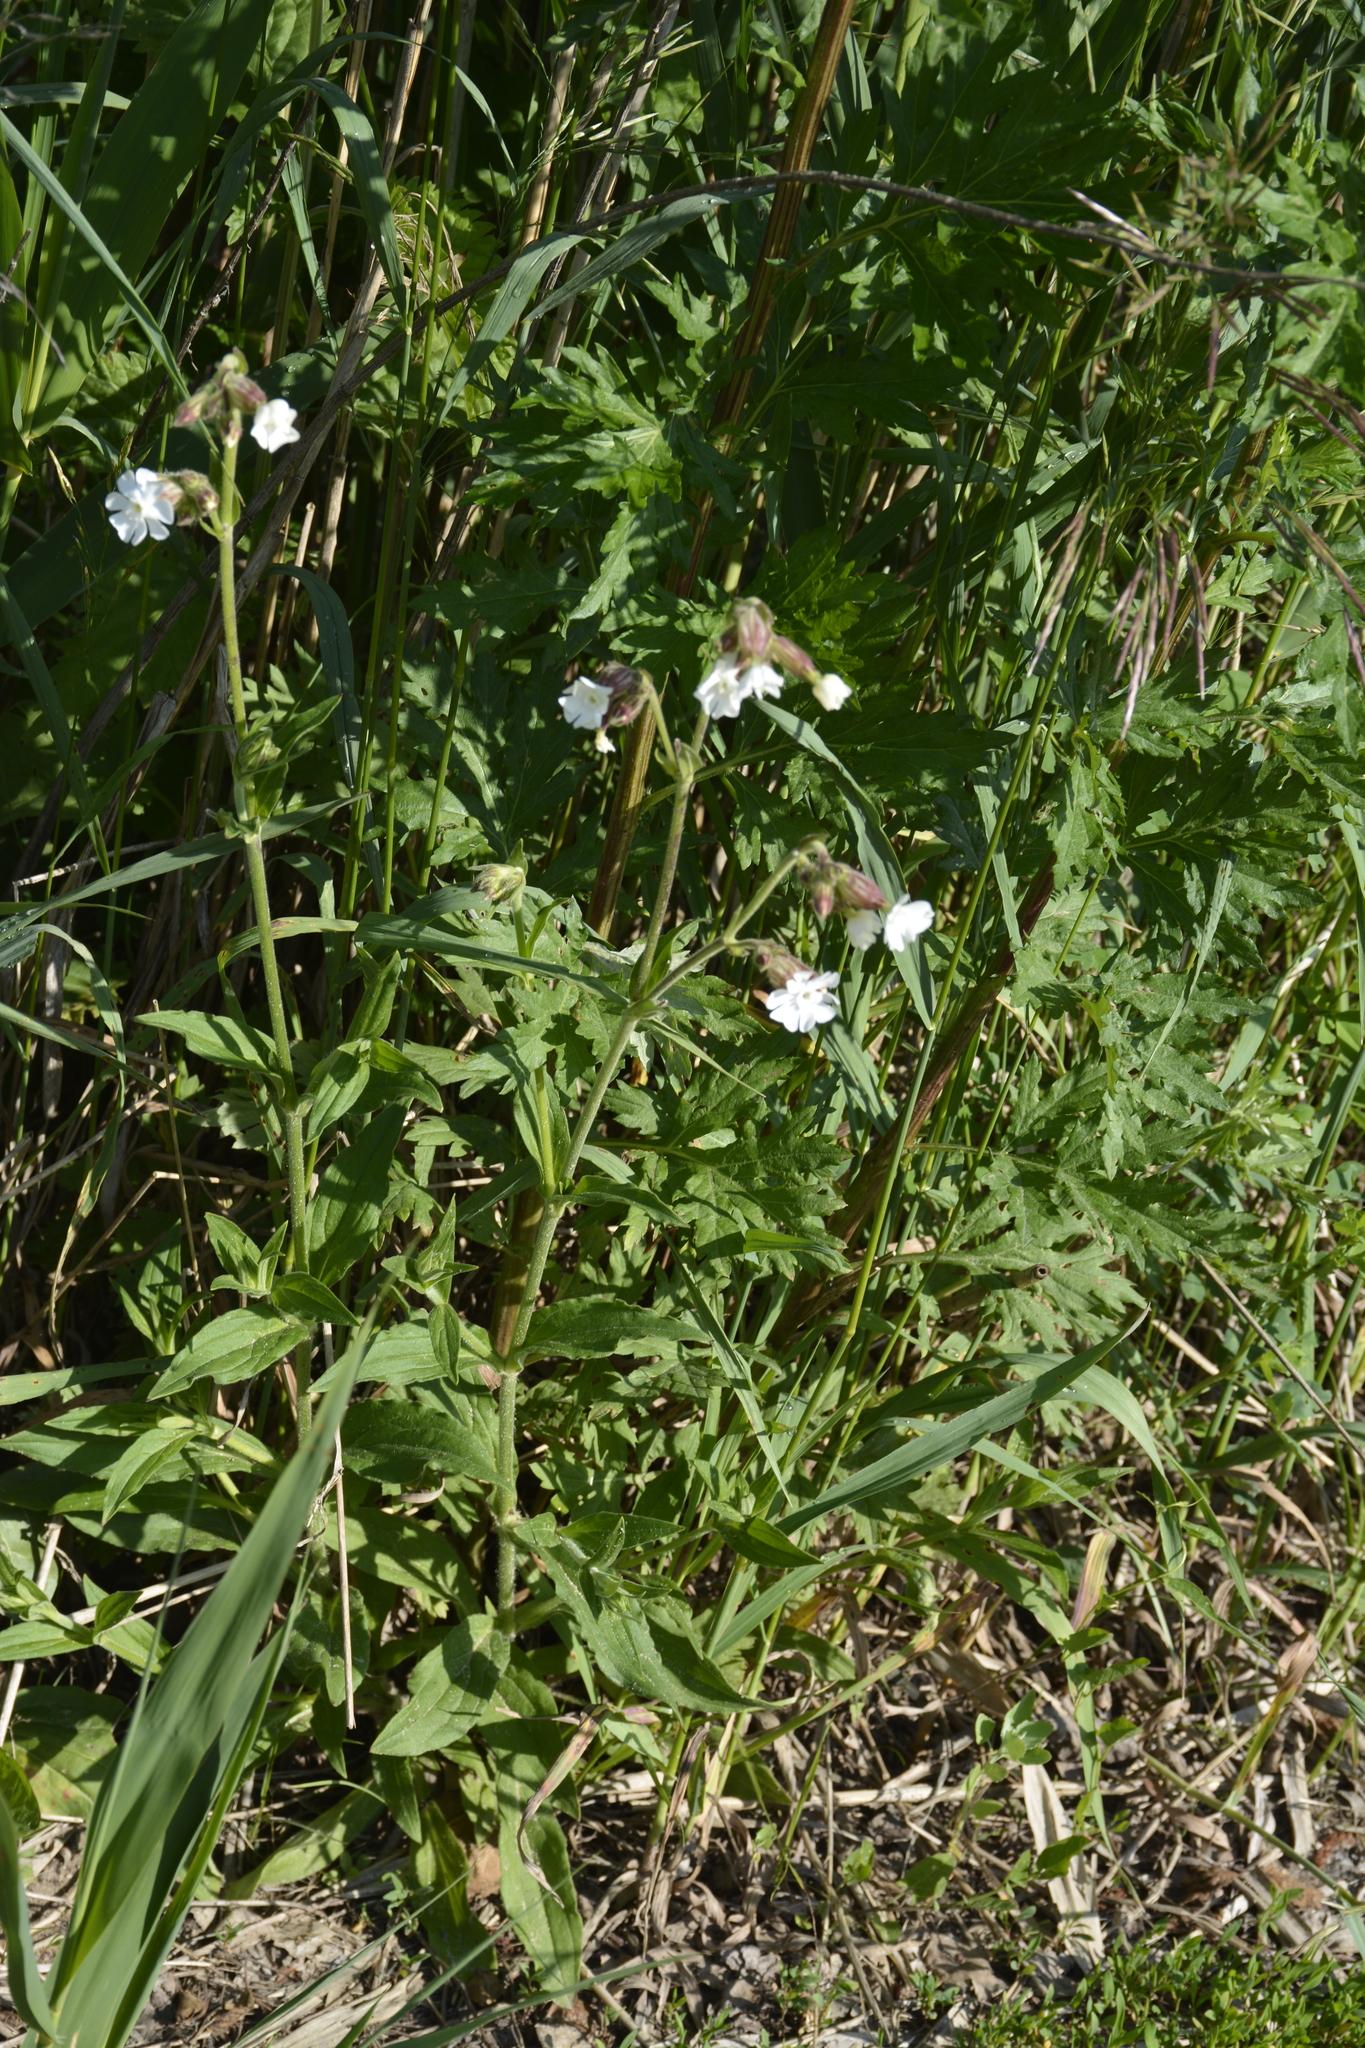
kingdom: Plantae
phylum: Tracheophyta
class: Magnoliopsida
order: Caryophyllales
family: Caryophyllaceae
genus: Silene
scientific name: Silene latifolia
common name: White campion
